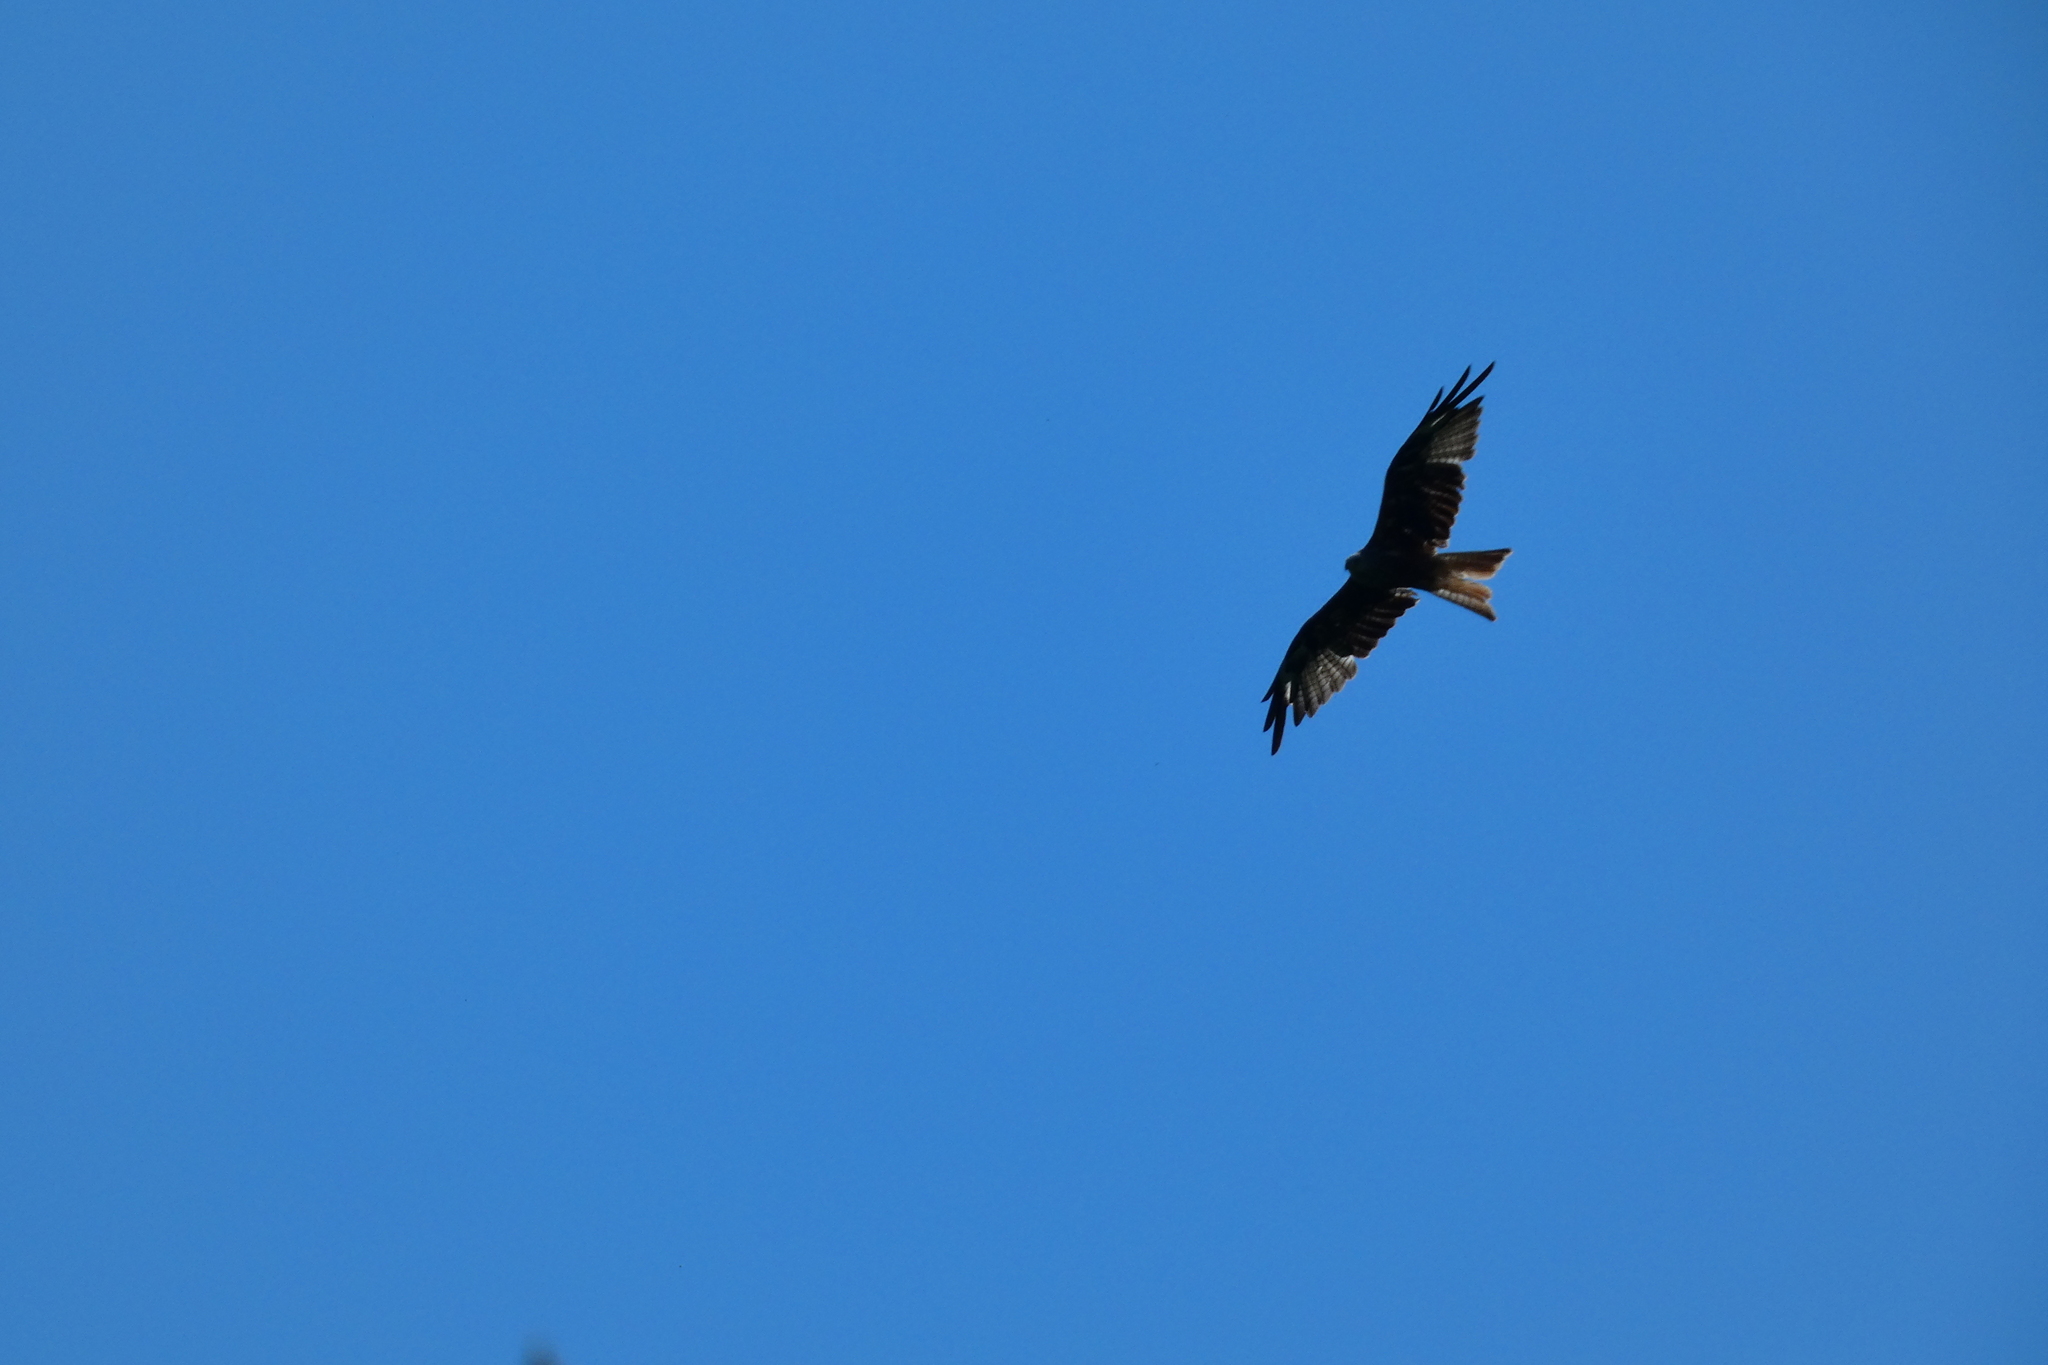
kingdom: Animalia
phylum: Chordata
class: Aves
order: Accipitriformes
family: Accipitridae
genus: Milvus
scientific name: Milvus milvus
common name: Red kite
